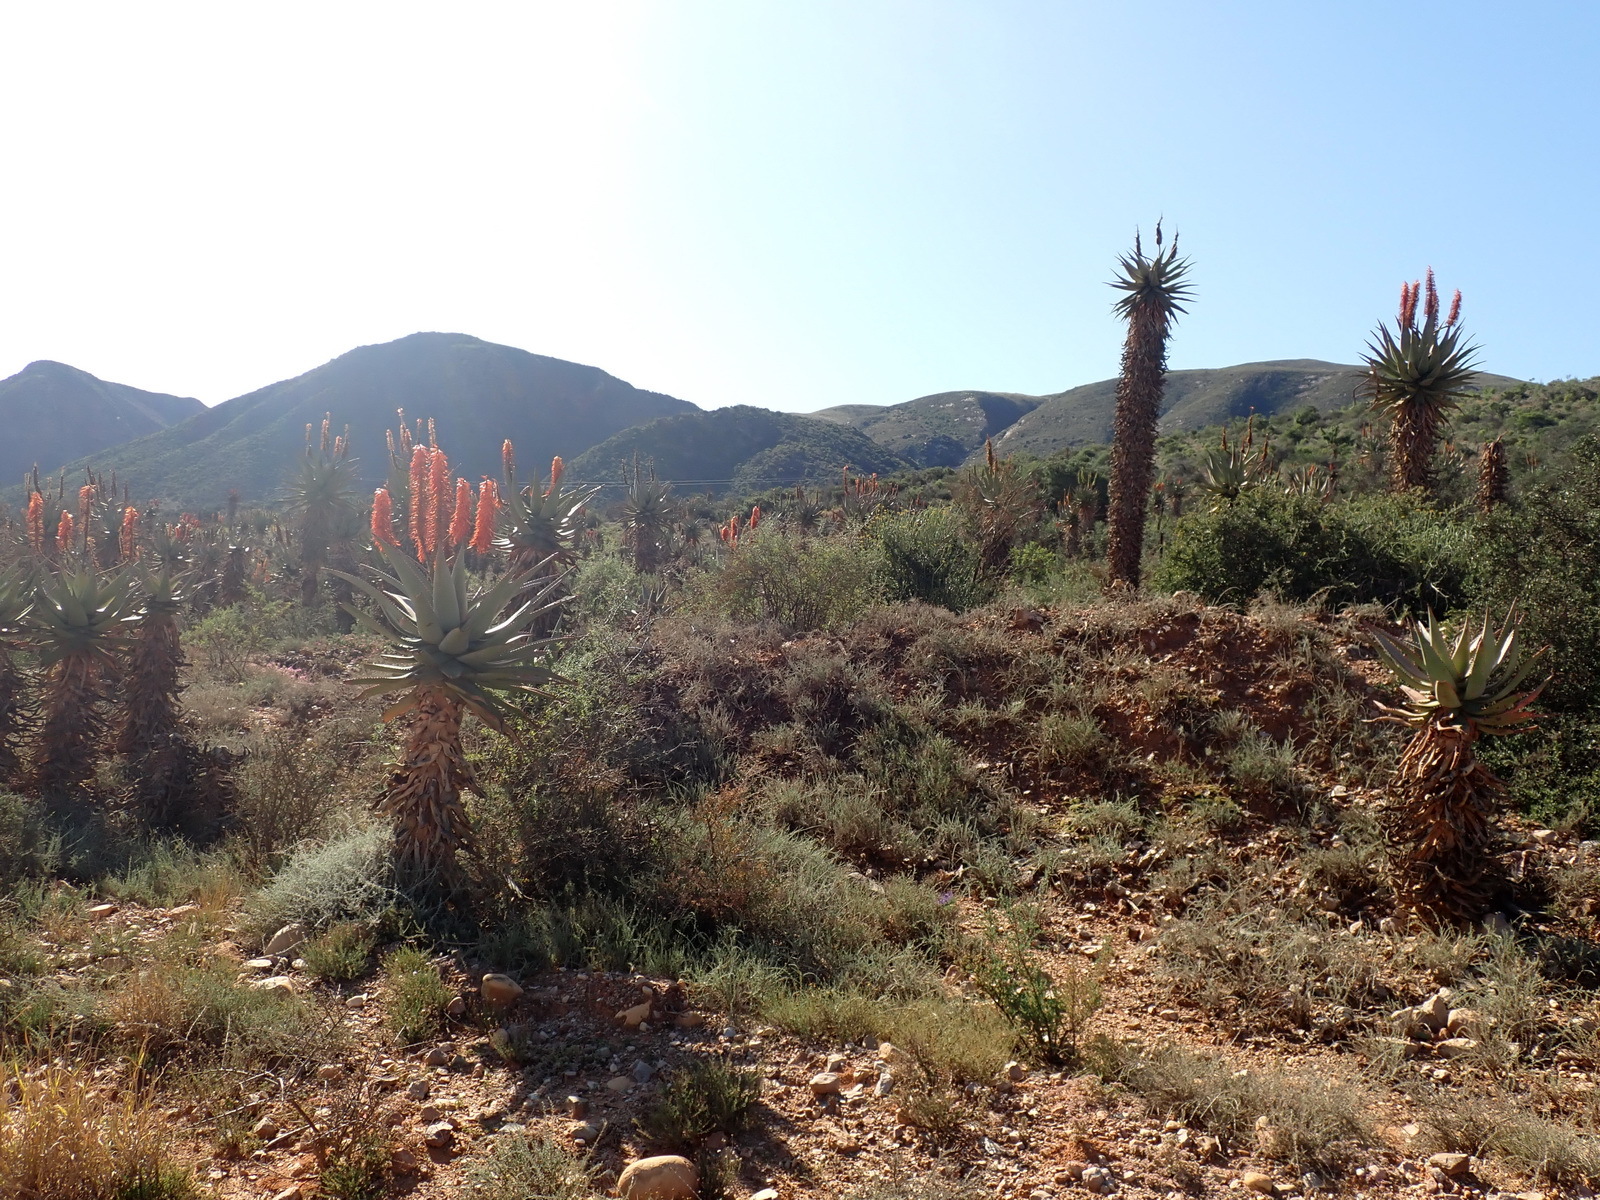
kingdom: Plantae
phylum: Tracheophyta
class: Liliopsida
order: Asparagales
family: Asphodelaceae
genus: Aloe
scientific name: Aloe ferox
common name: Bitter aloe
